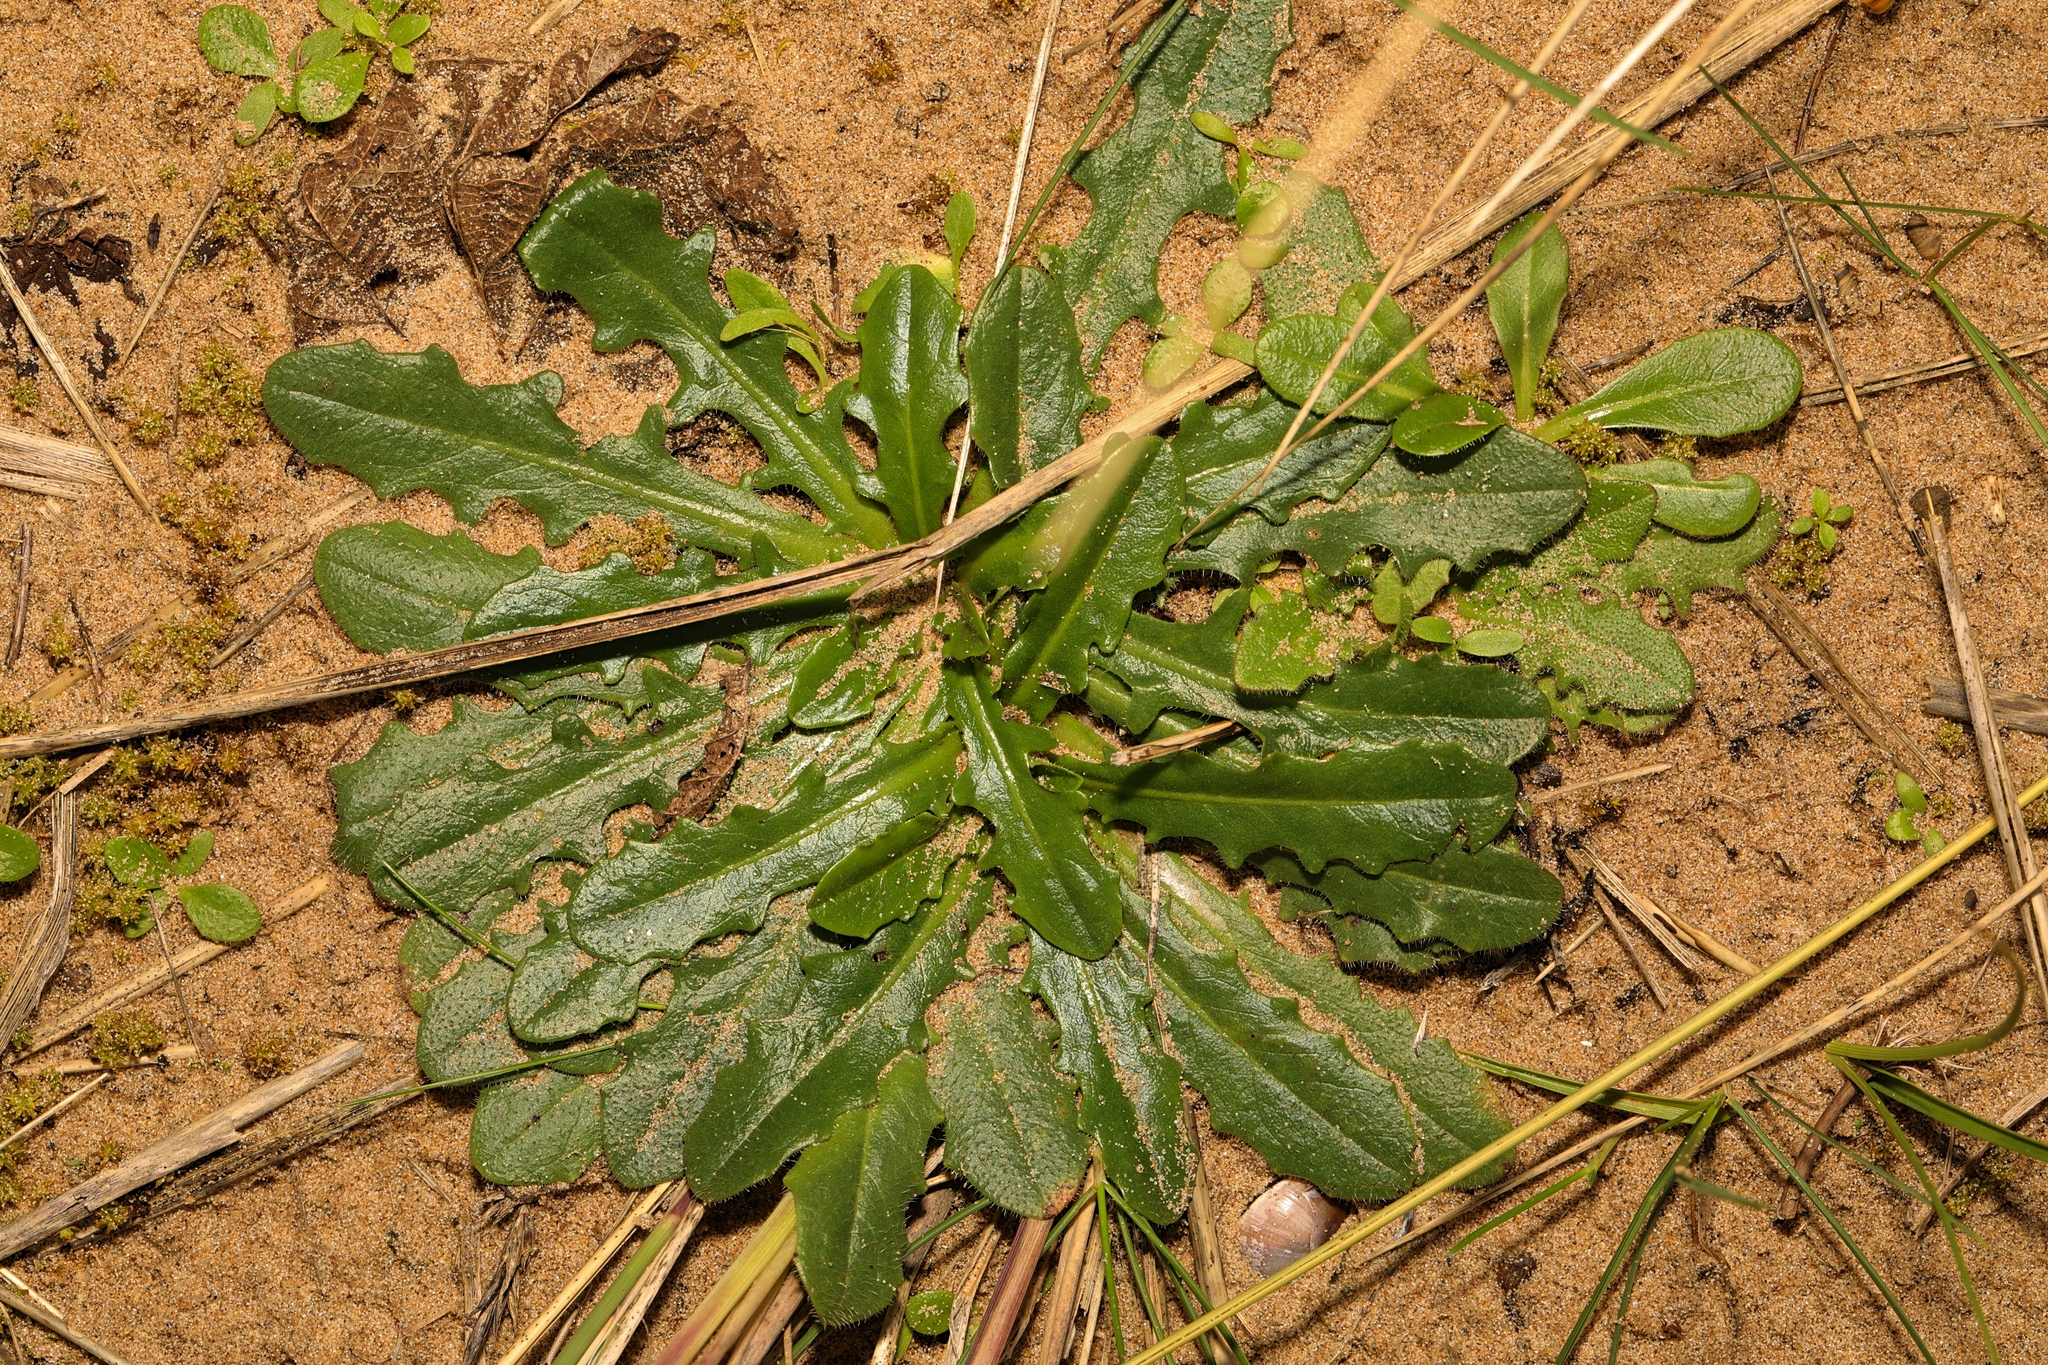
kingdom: Plantae
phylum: Tracheophyta
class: Magnoliopsida
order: Asterales
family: Asteraceae
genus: Hypochaeris
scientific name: Hypochaeris radicata
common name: Flatweed
